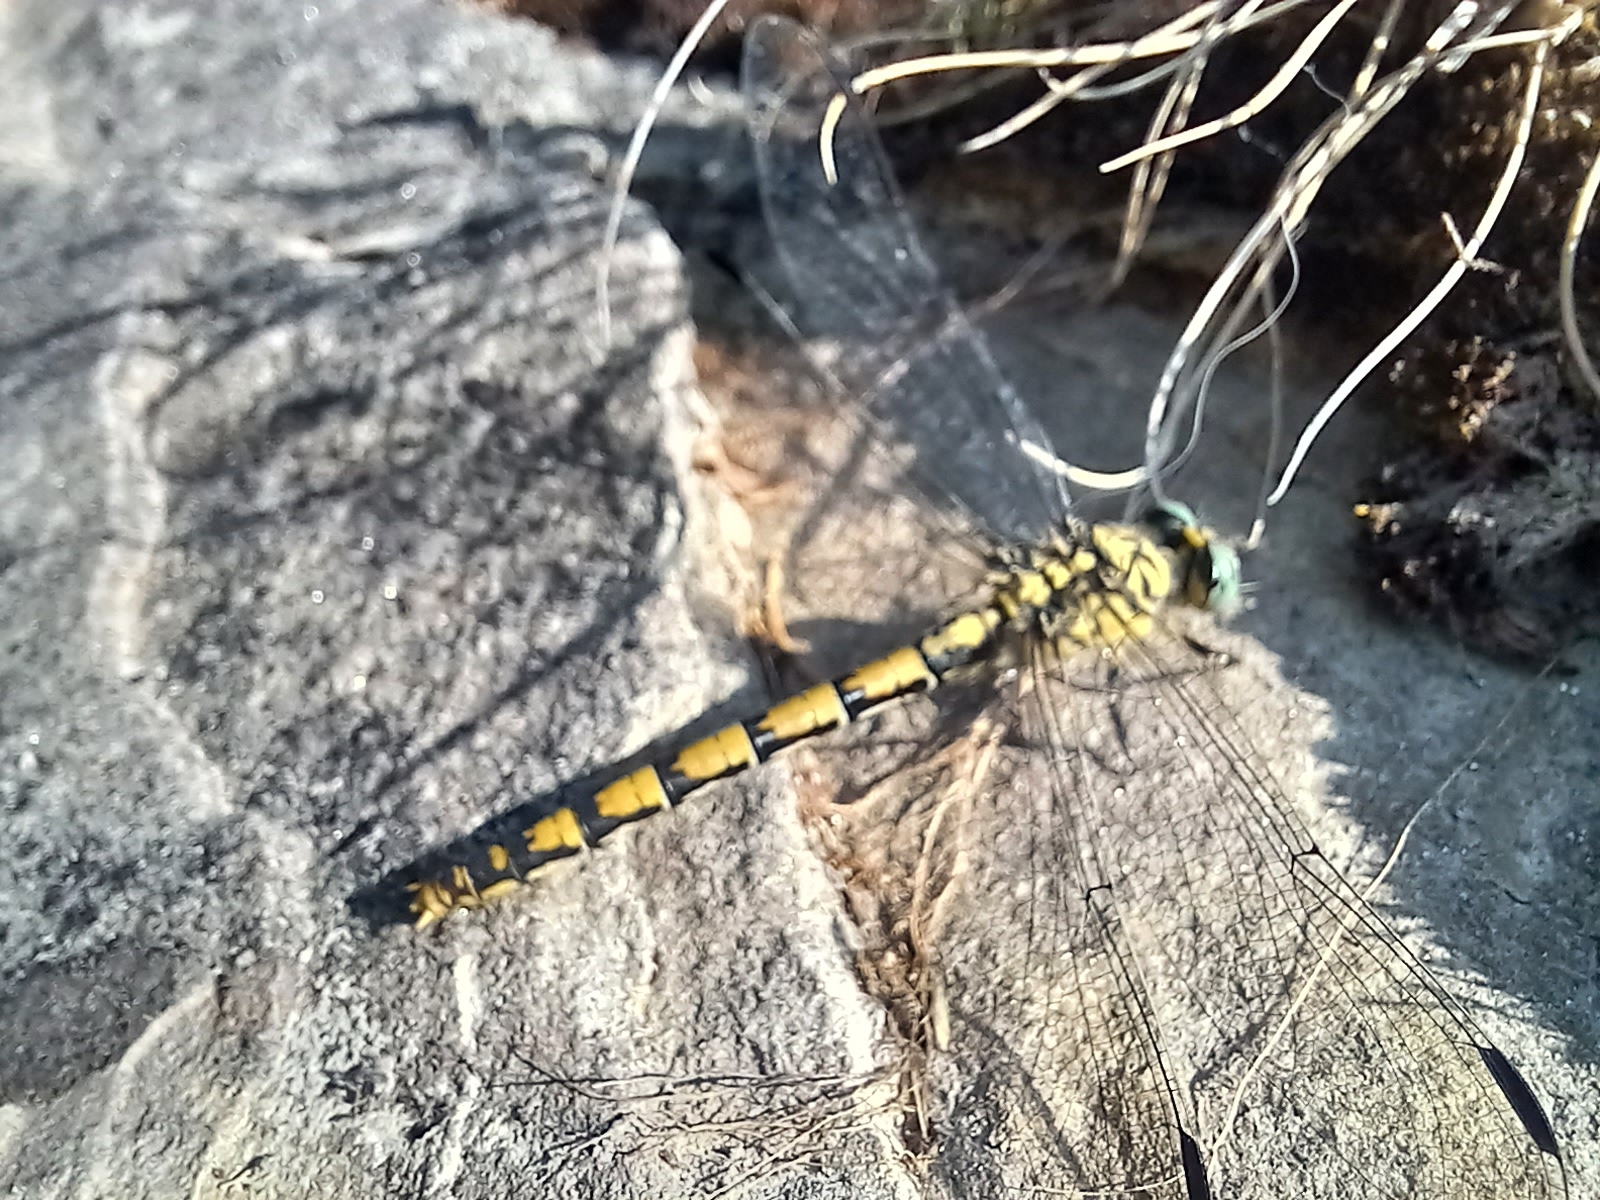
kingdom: Animalia
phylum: Arthropoda
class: Insecta
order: Odonata
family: Gomphidae
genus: Onychogomphus
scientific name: Onychogomphus forcipatus
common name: Small pincertail
